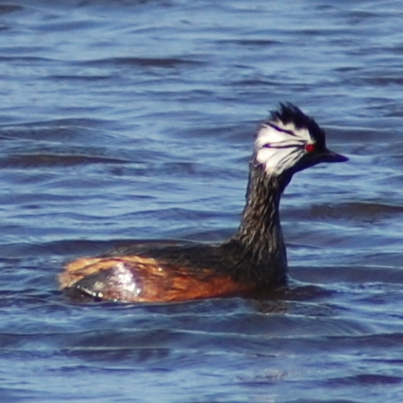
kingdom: Animalia
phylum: Chordata
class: Aves
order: Podicipediformes
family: Podicipedidae
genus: Rollandia
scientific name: Rollandia rolland
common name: White-tufted grebe
